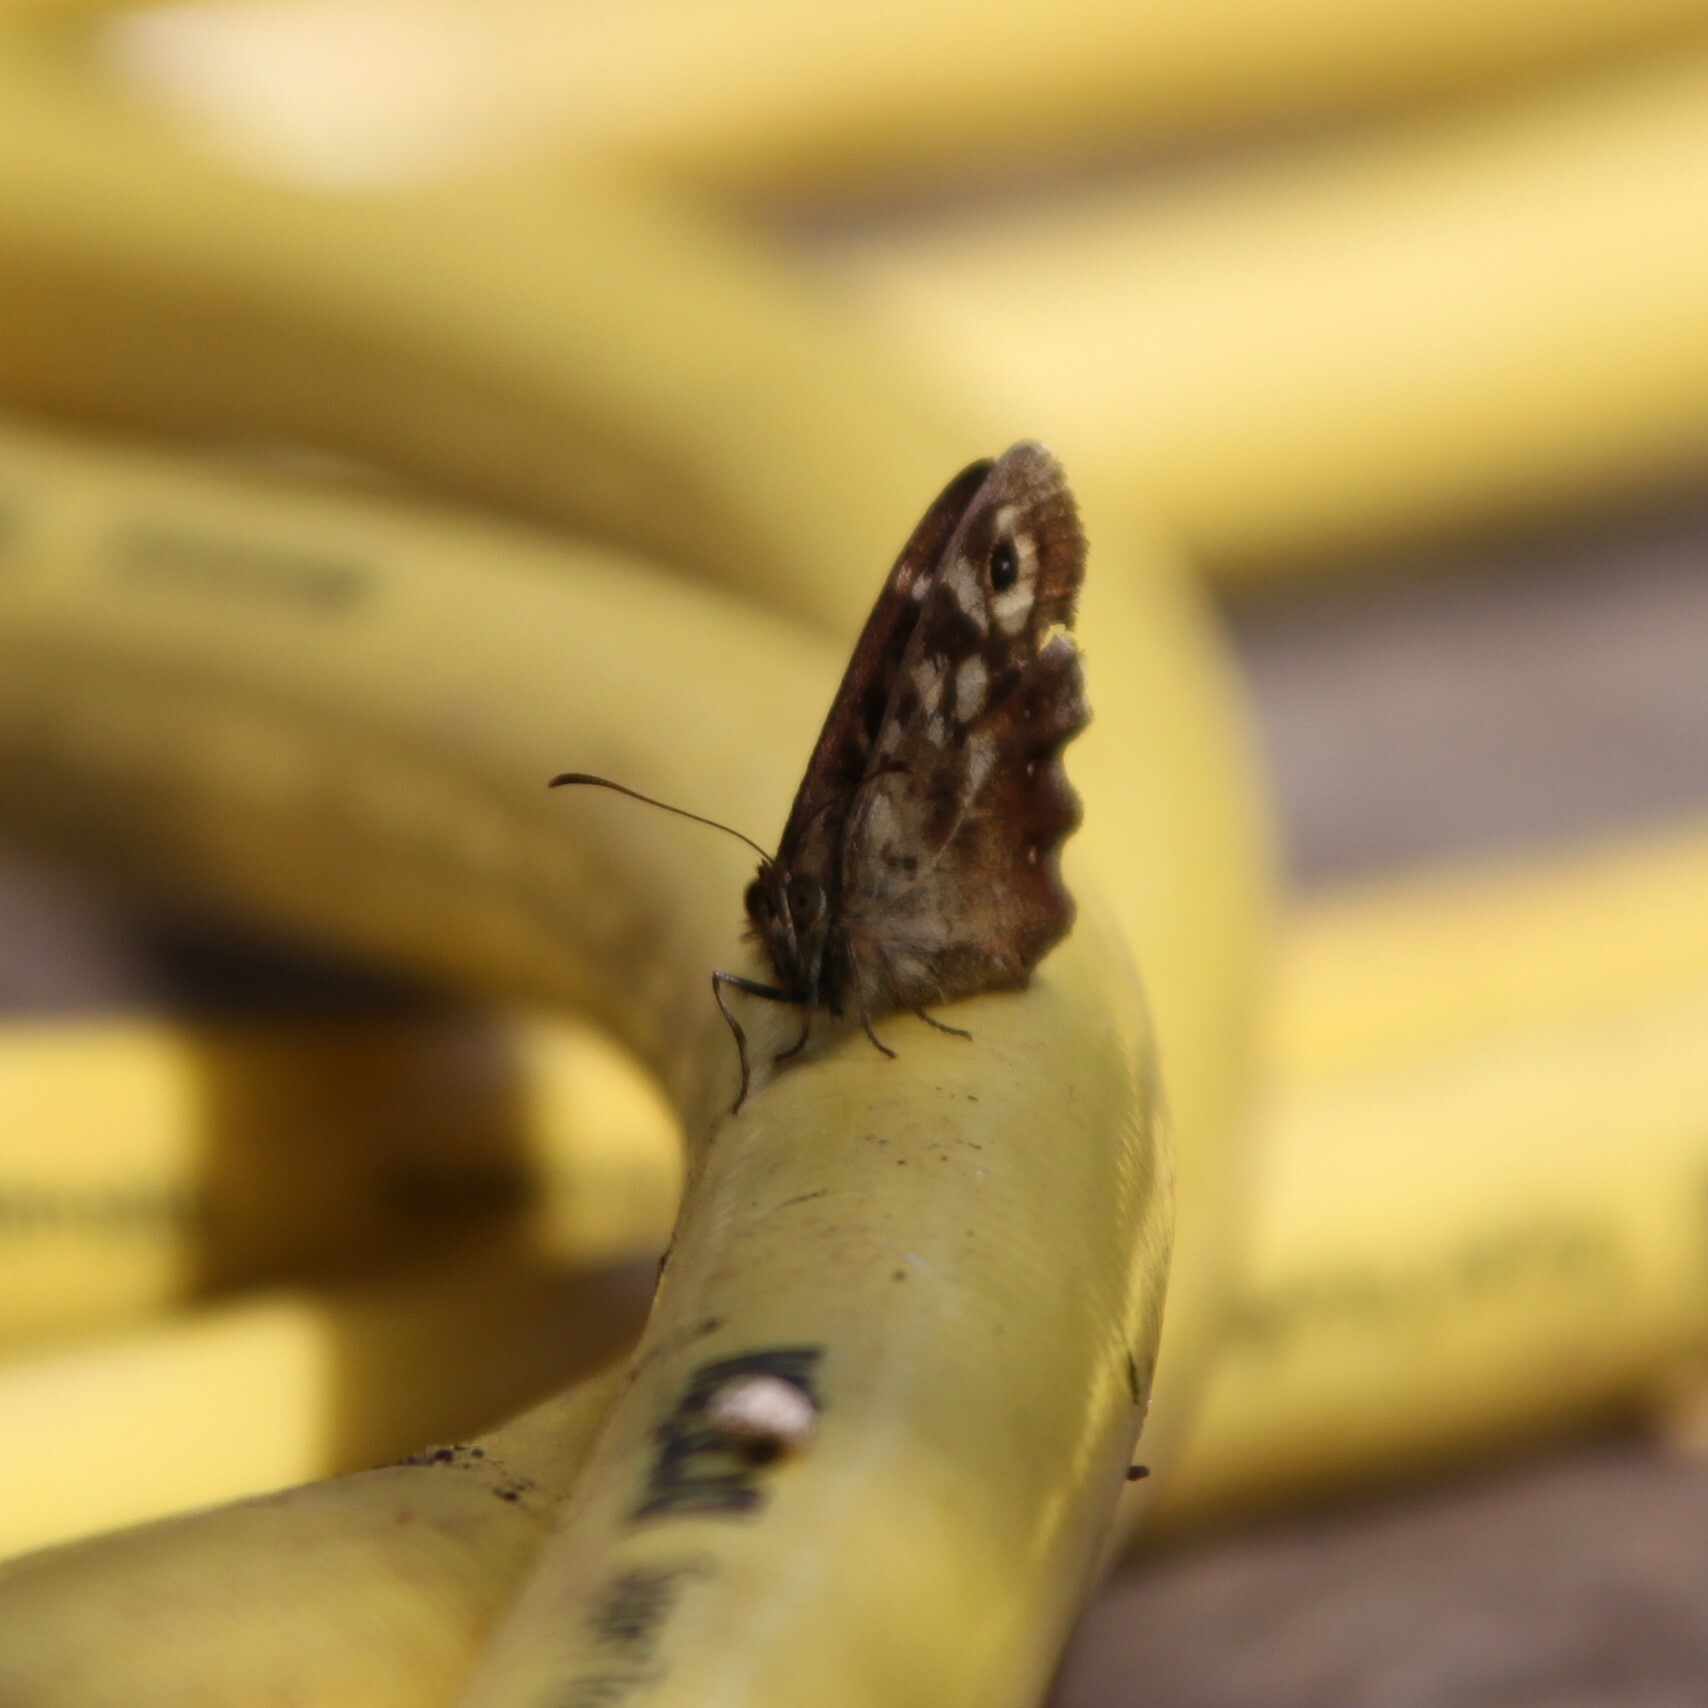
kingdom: Animalia
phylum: Arthropoda
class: Insecta
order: Lepidoptera
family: Nymphalidae
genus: Pararge
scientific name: Pararge aegeria
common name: Speckled wood
